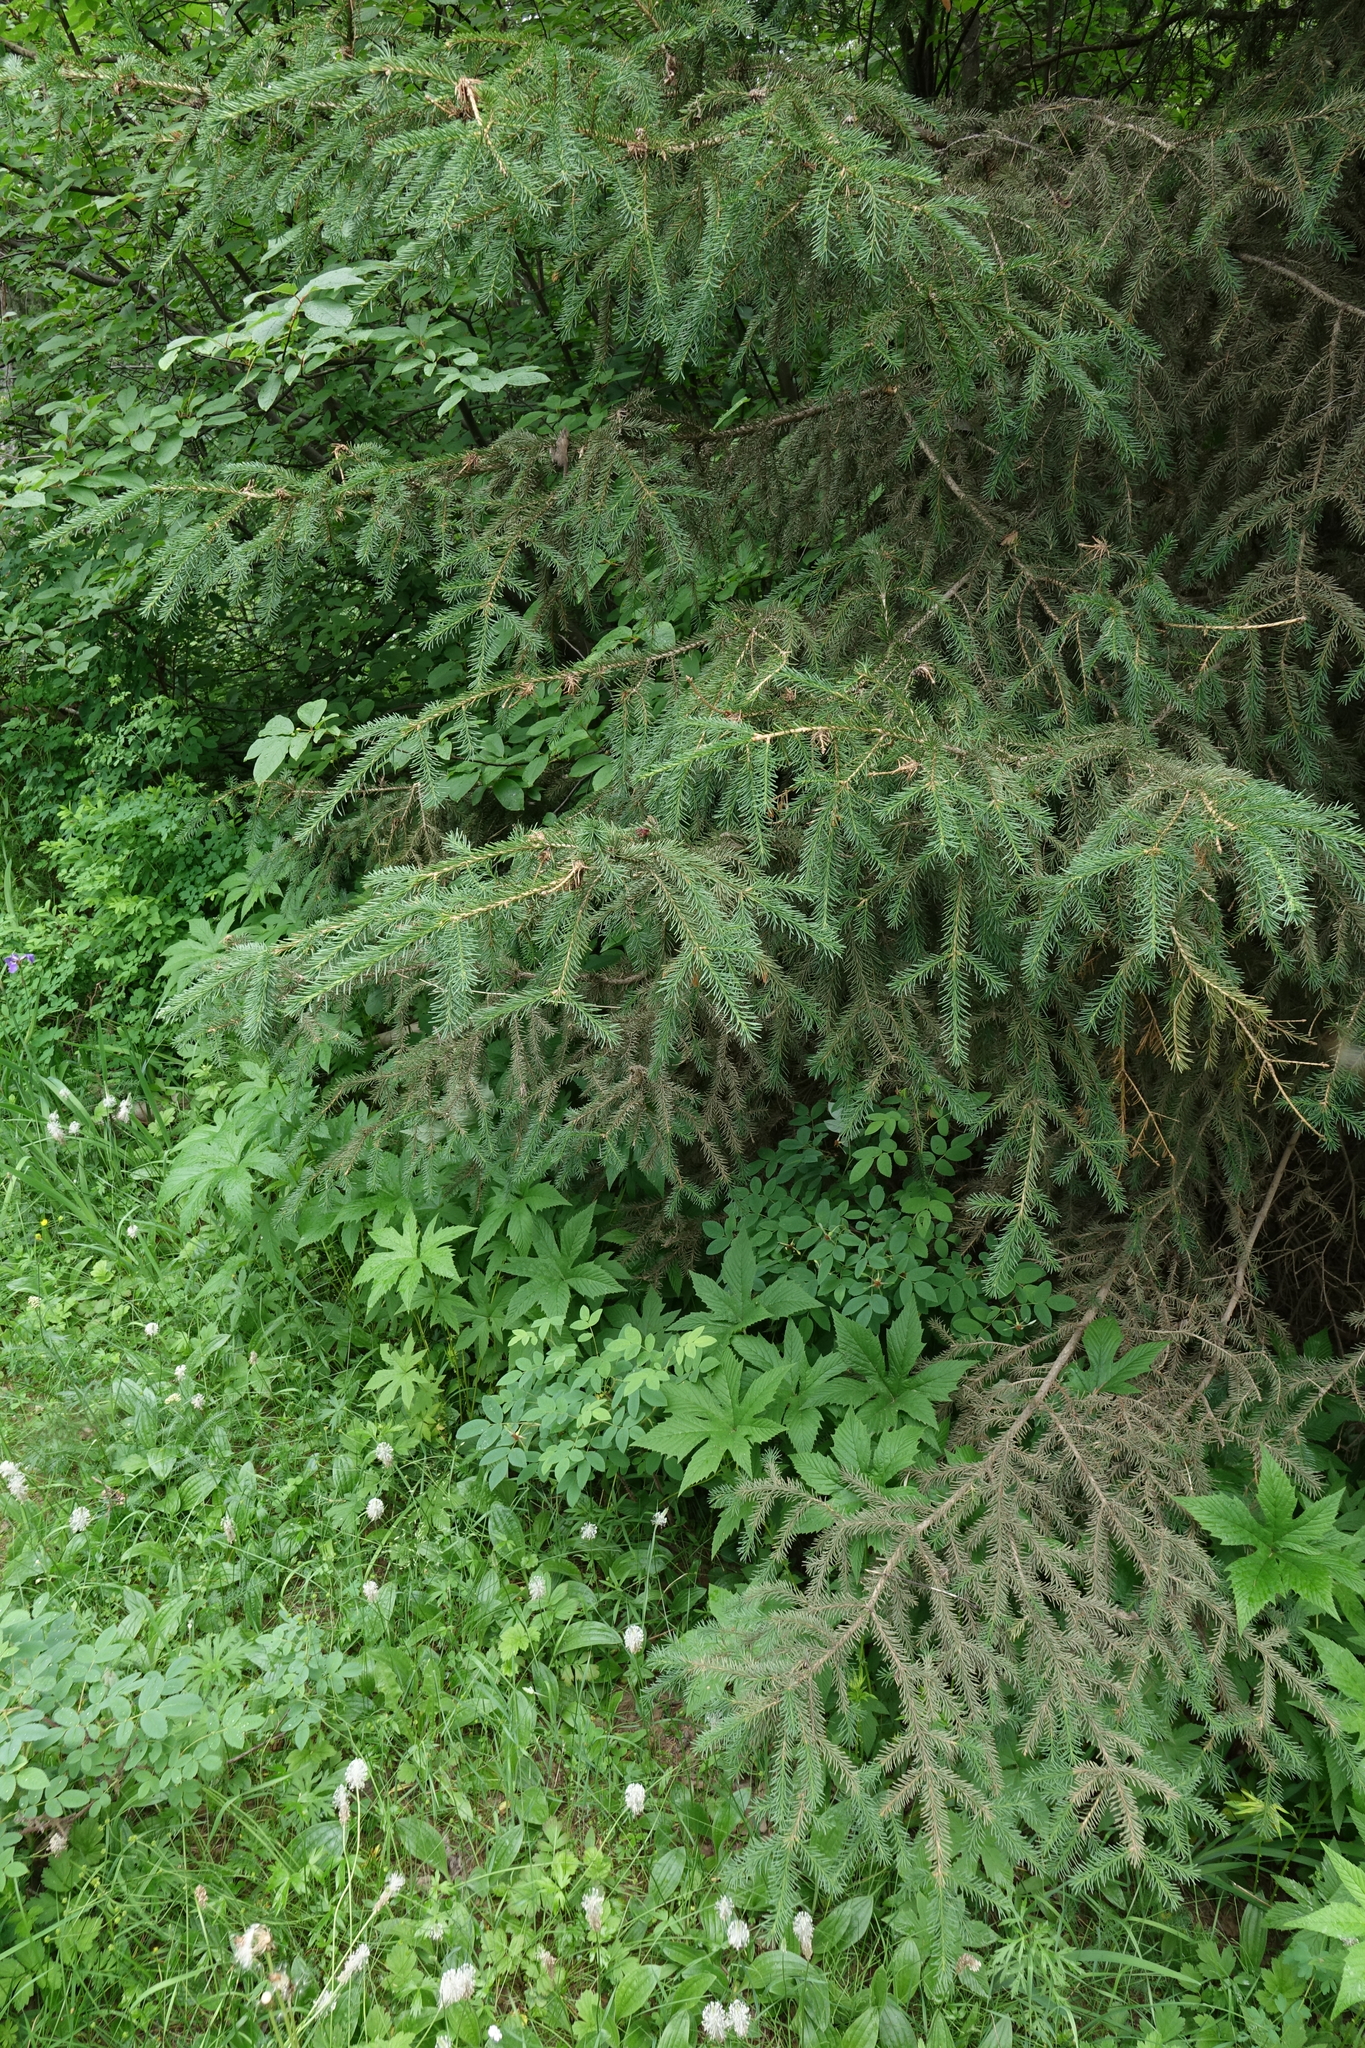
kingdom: Plantae
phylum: Tracheophyta
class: Magnoliopsida
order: Rosales
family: Rosaceae
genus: Filipendula
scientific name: Filipendula digitata
